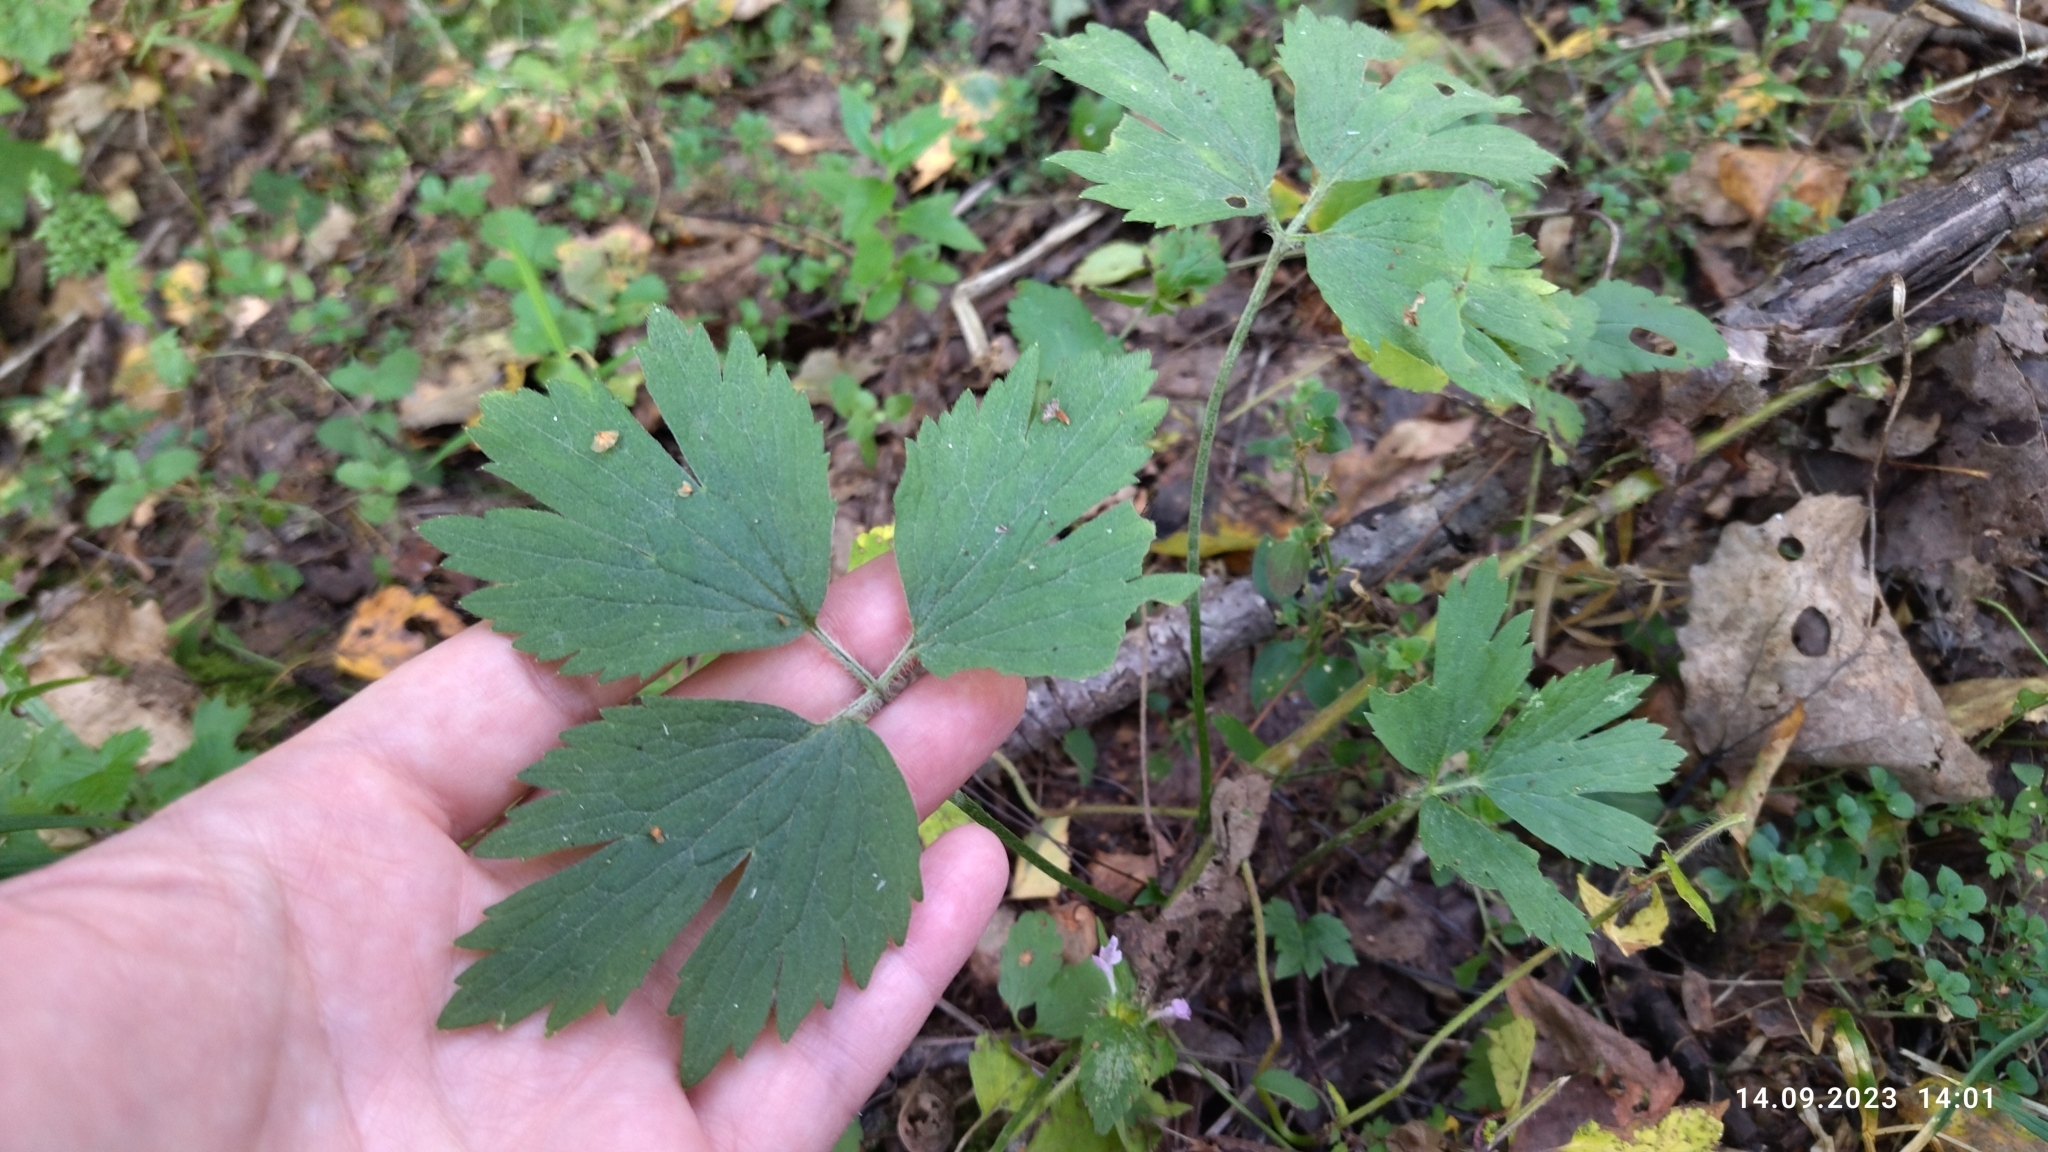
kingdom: Plantae
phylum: Tracheophyta
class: Magnoliopsida
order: Ranunculales
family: Ranunculaceae
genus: Ranunculus
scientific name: Ranunculus repens
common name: Creeping buttercup
